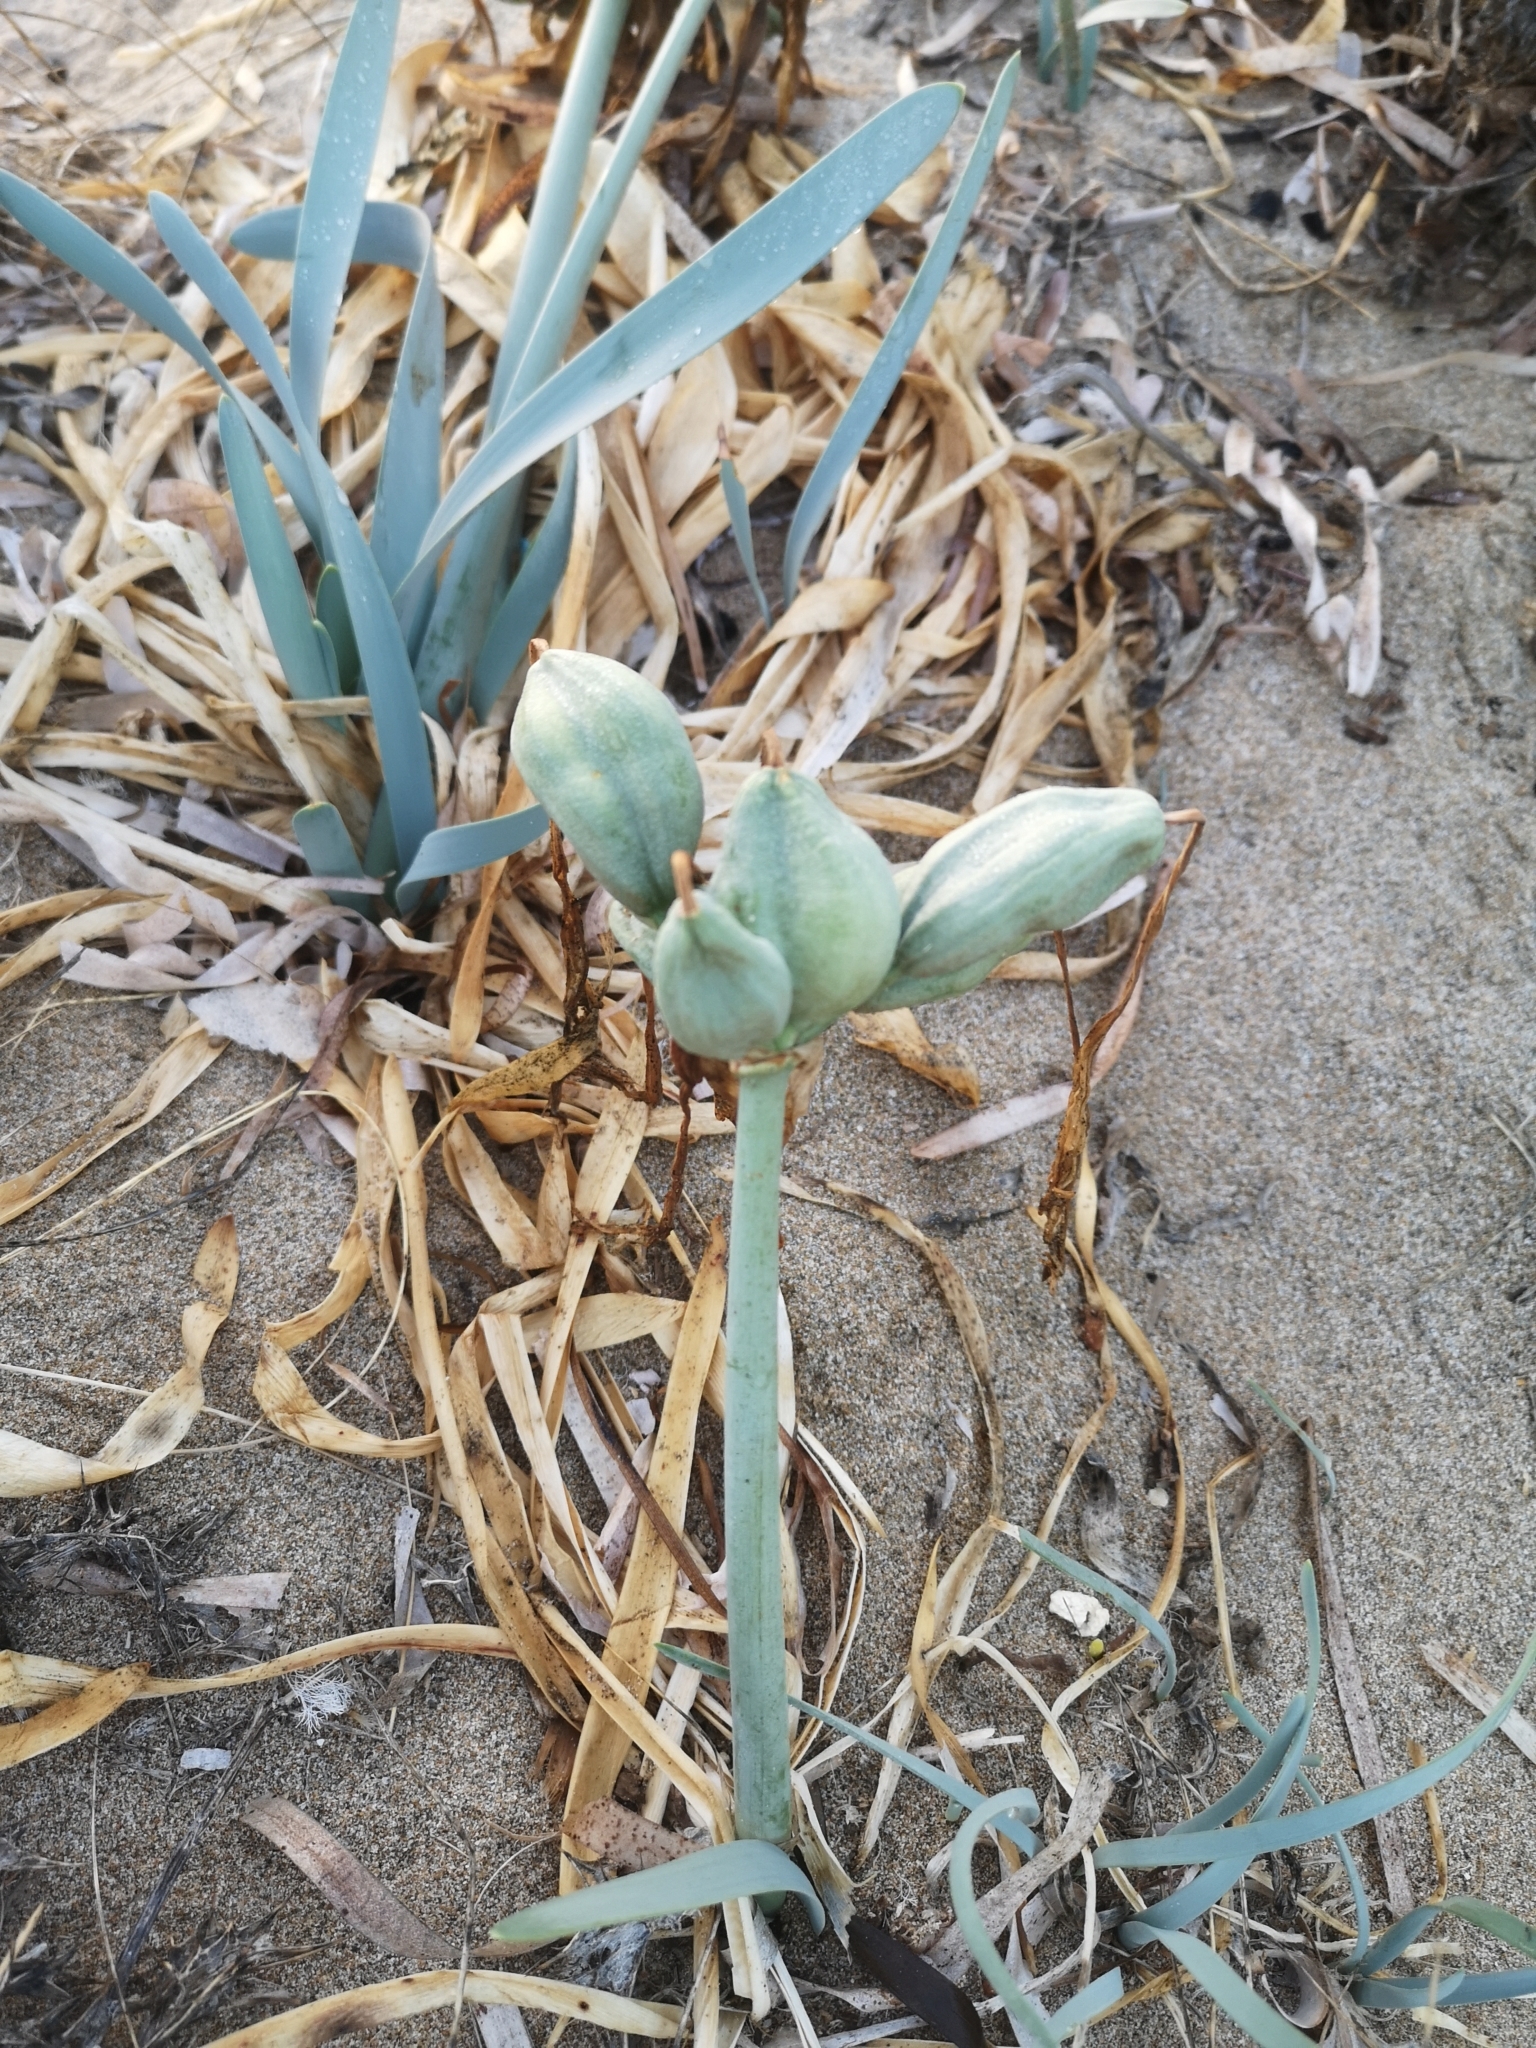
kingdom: Plantae
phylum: Tracheophyta
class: Liliopsida
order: Asparagales
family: Amaryllidaceae
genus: Pancratium
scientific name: Pancratium maritimum
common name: Sea-daffodil
